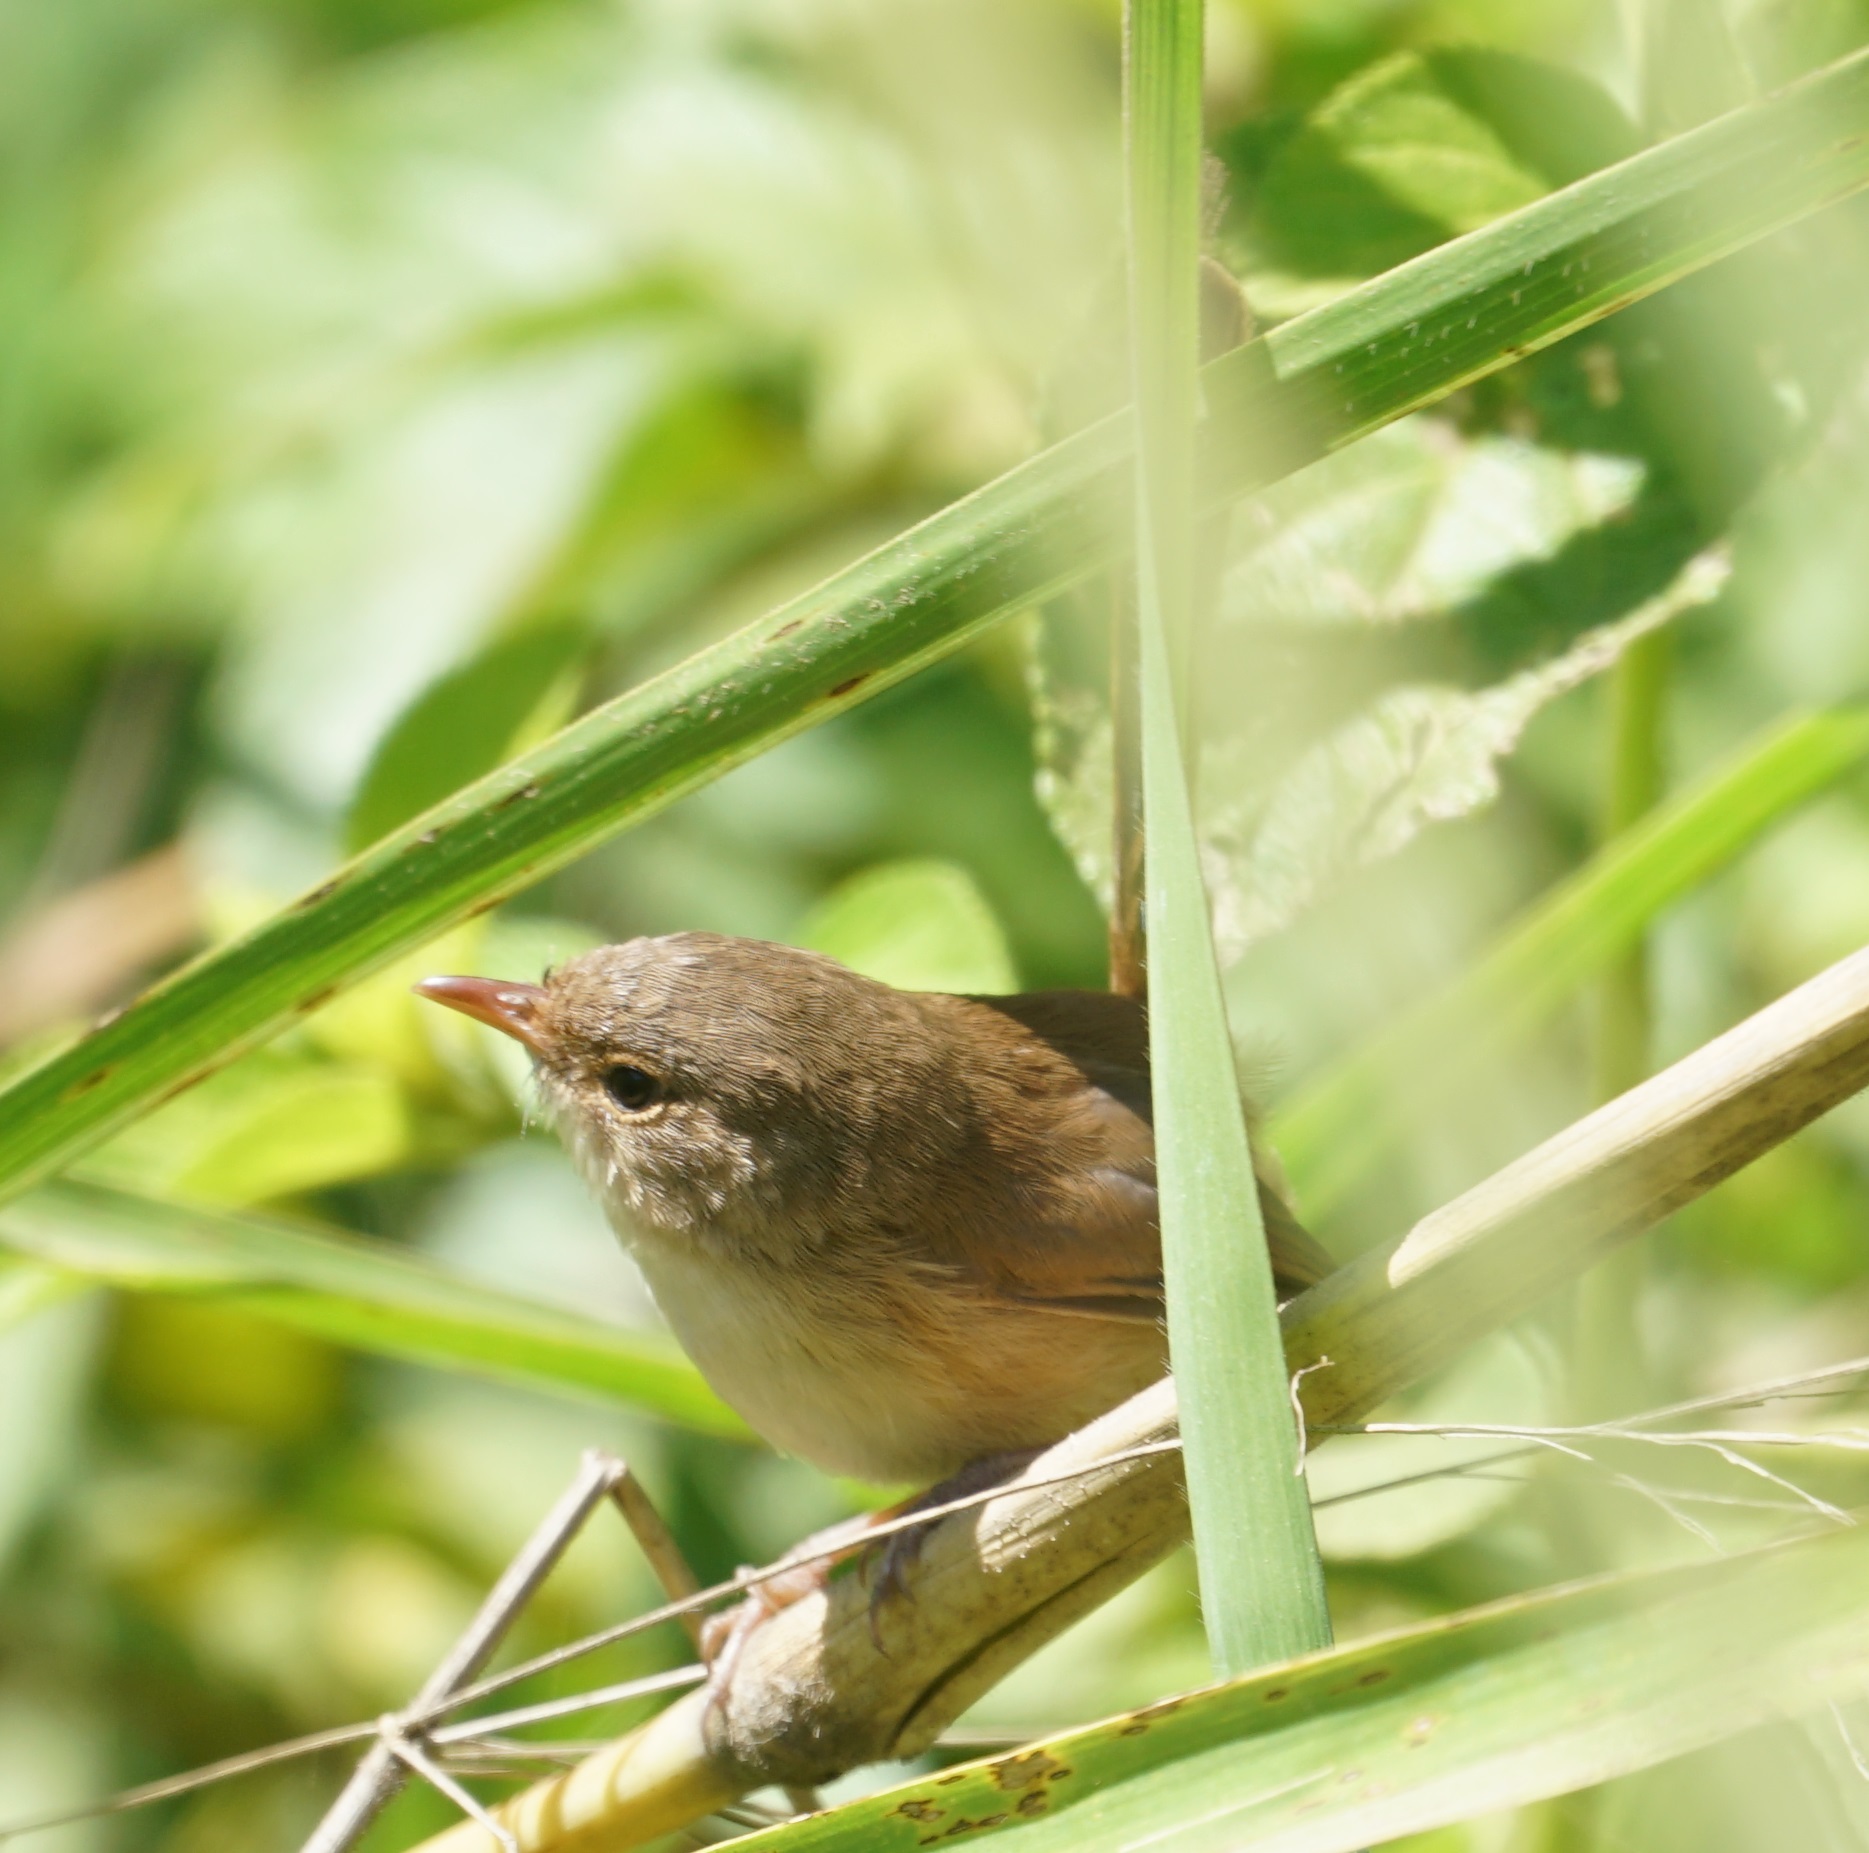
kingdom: Animalia
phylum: Chordata
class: Aves
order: Passeriformes
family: Maluridae
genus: Malurus
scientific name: Malurus melanocephalus
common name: Red-backed fairywren
